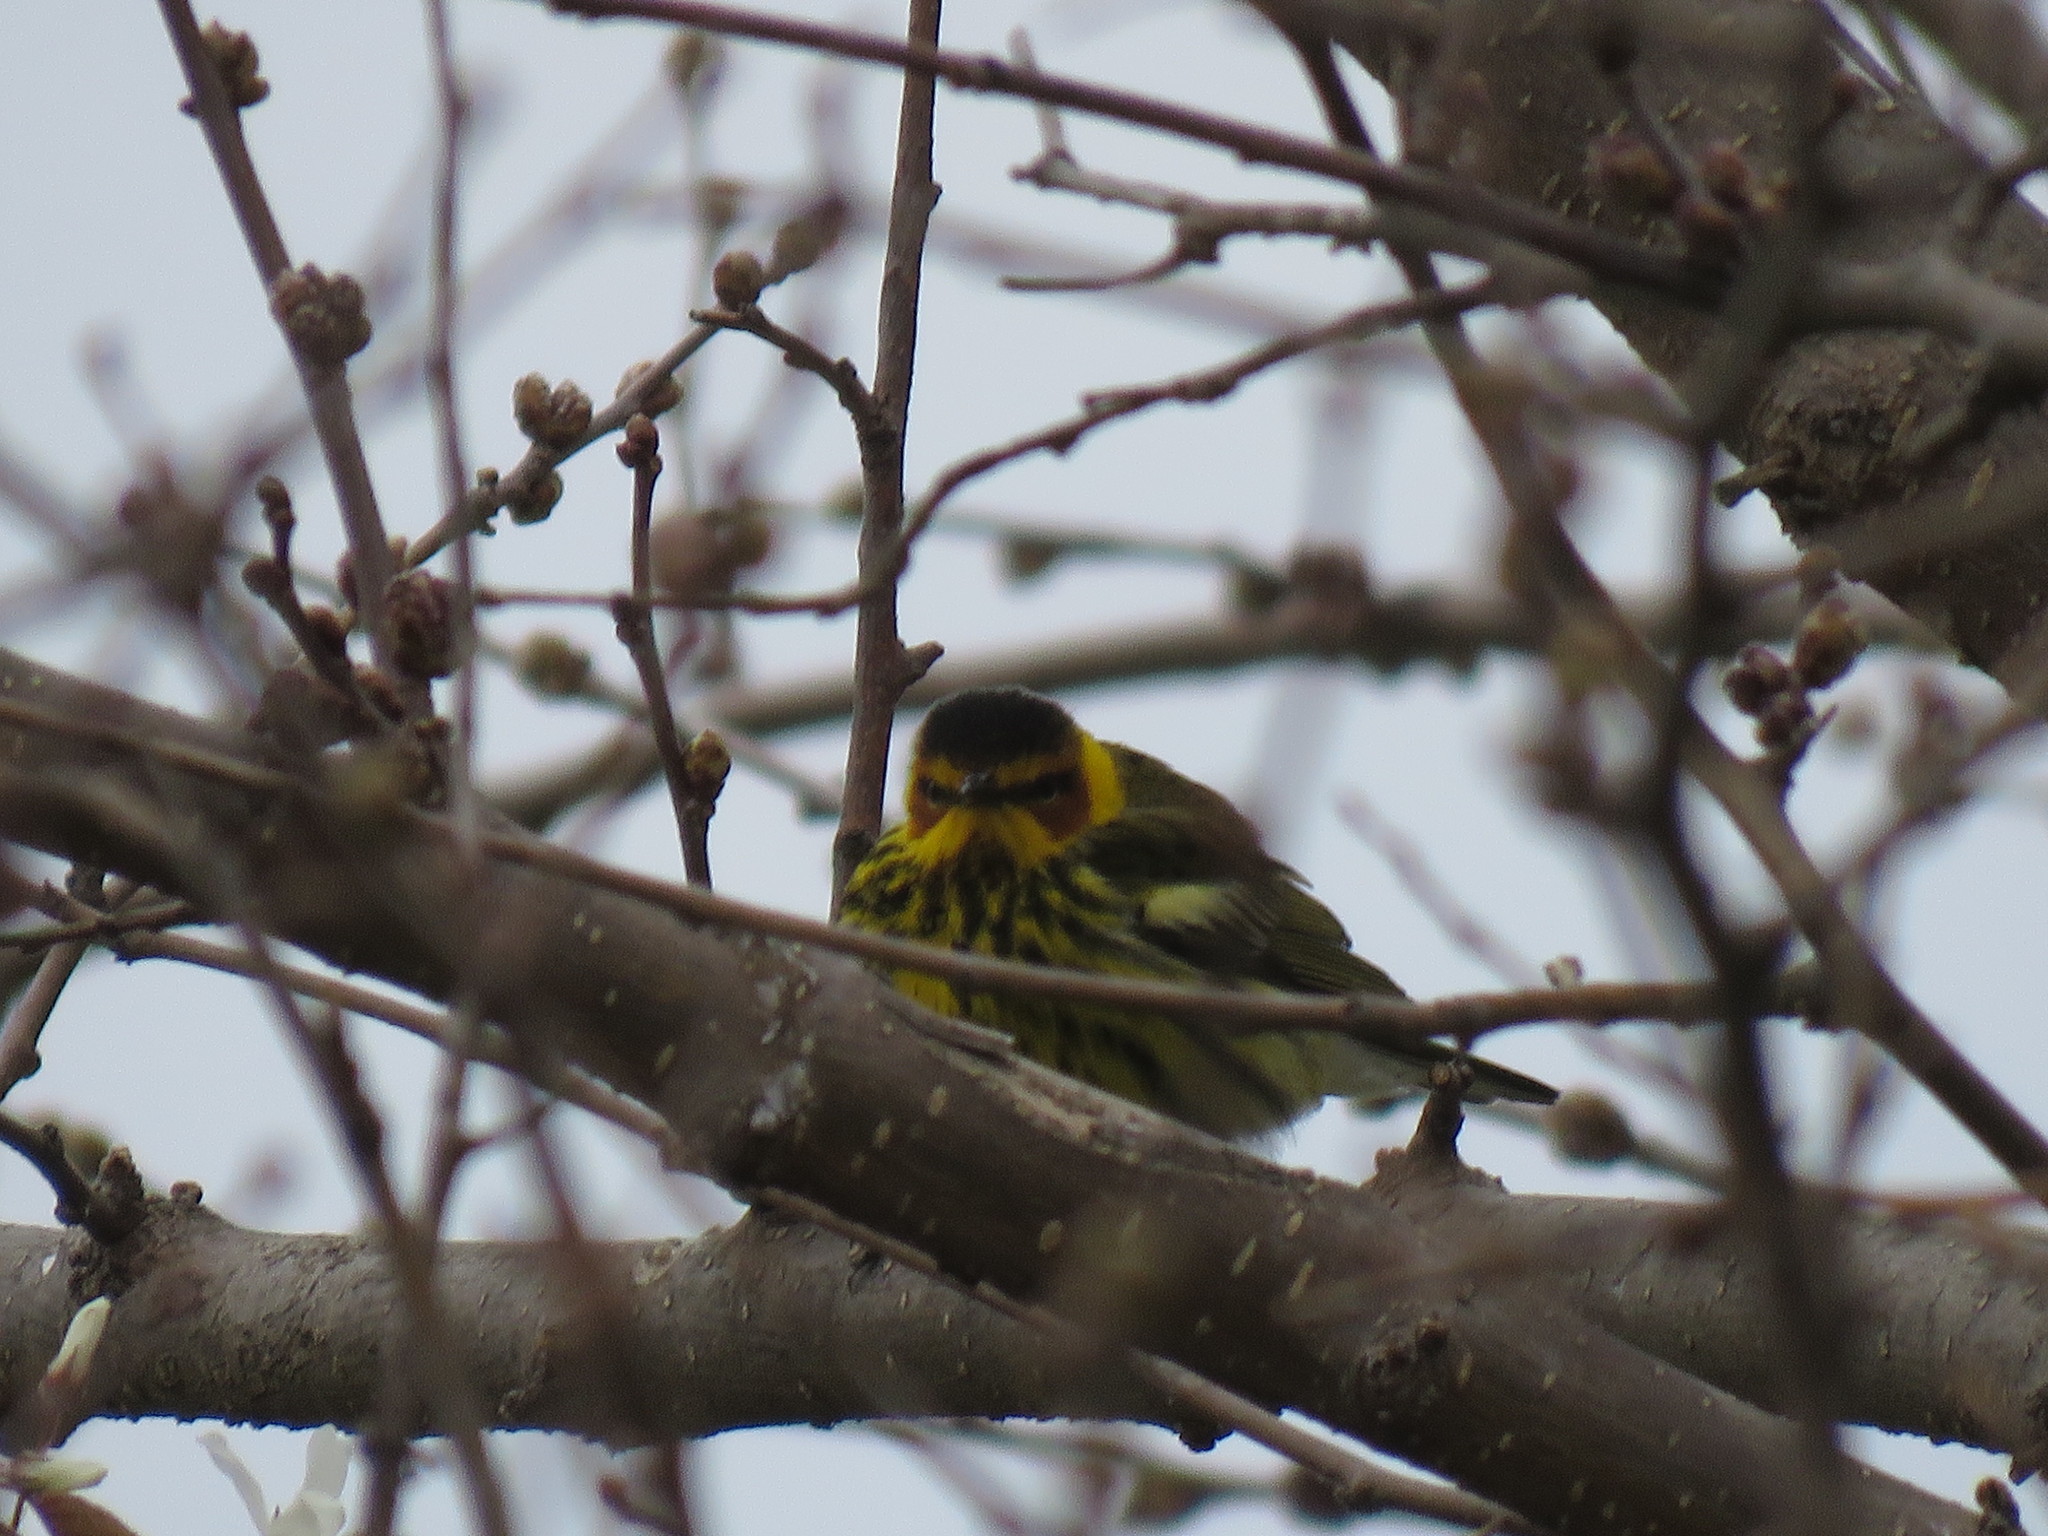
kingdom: Animalia
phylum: Chordata
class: Aves
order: Passeriformes
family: Parulidae
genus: Setophaga
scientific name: Setophaga tigrina
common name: Cape may warbler
